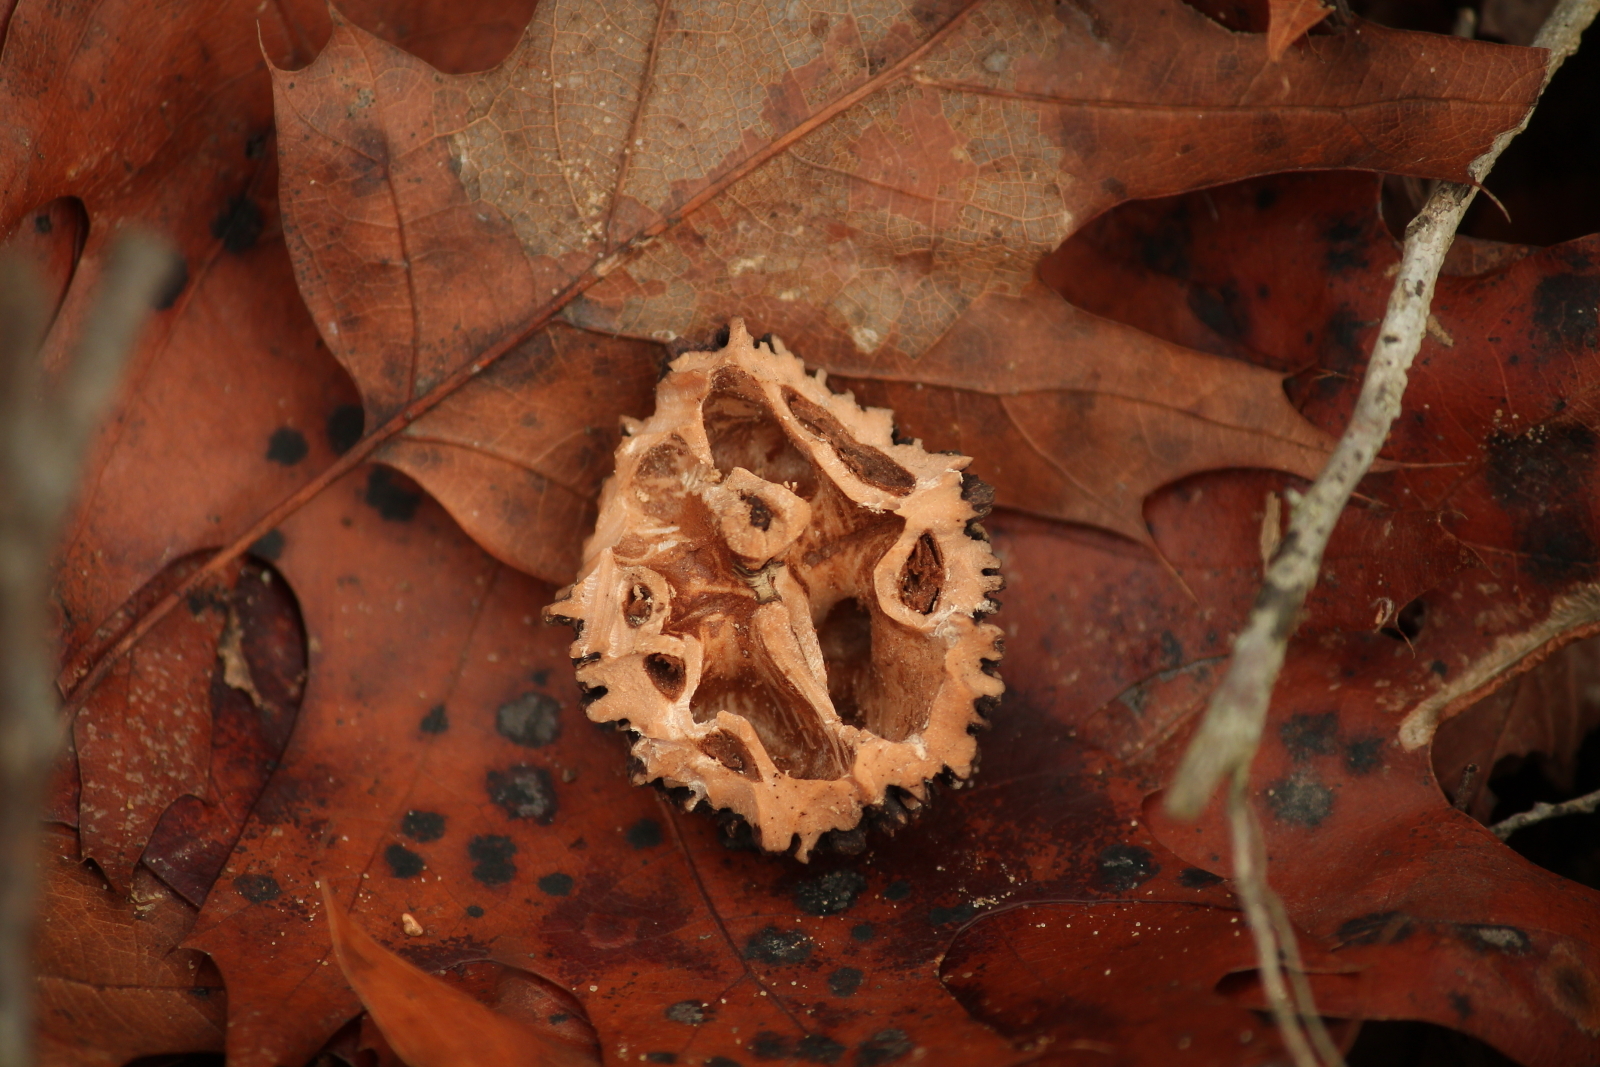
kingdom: Plantae
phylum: Tracheophyta
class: Magnoliopsida
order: Fagales
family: Juglandaceae
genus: Juglans
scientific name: Juglans nigra
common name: Black walnut
